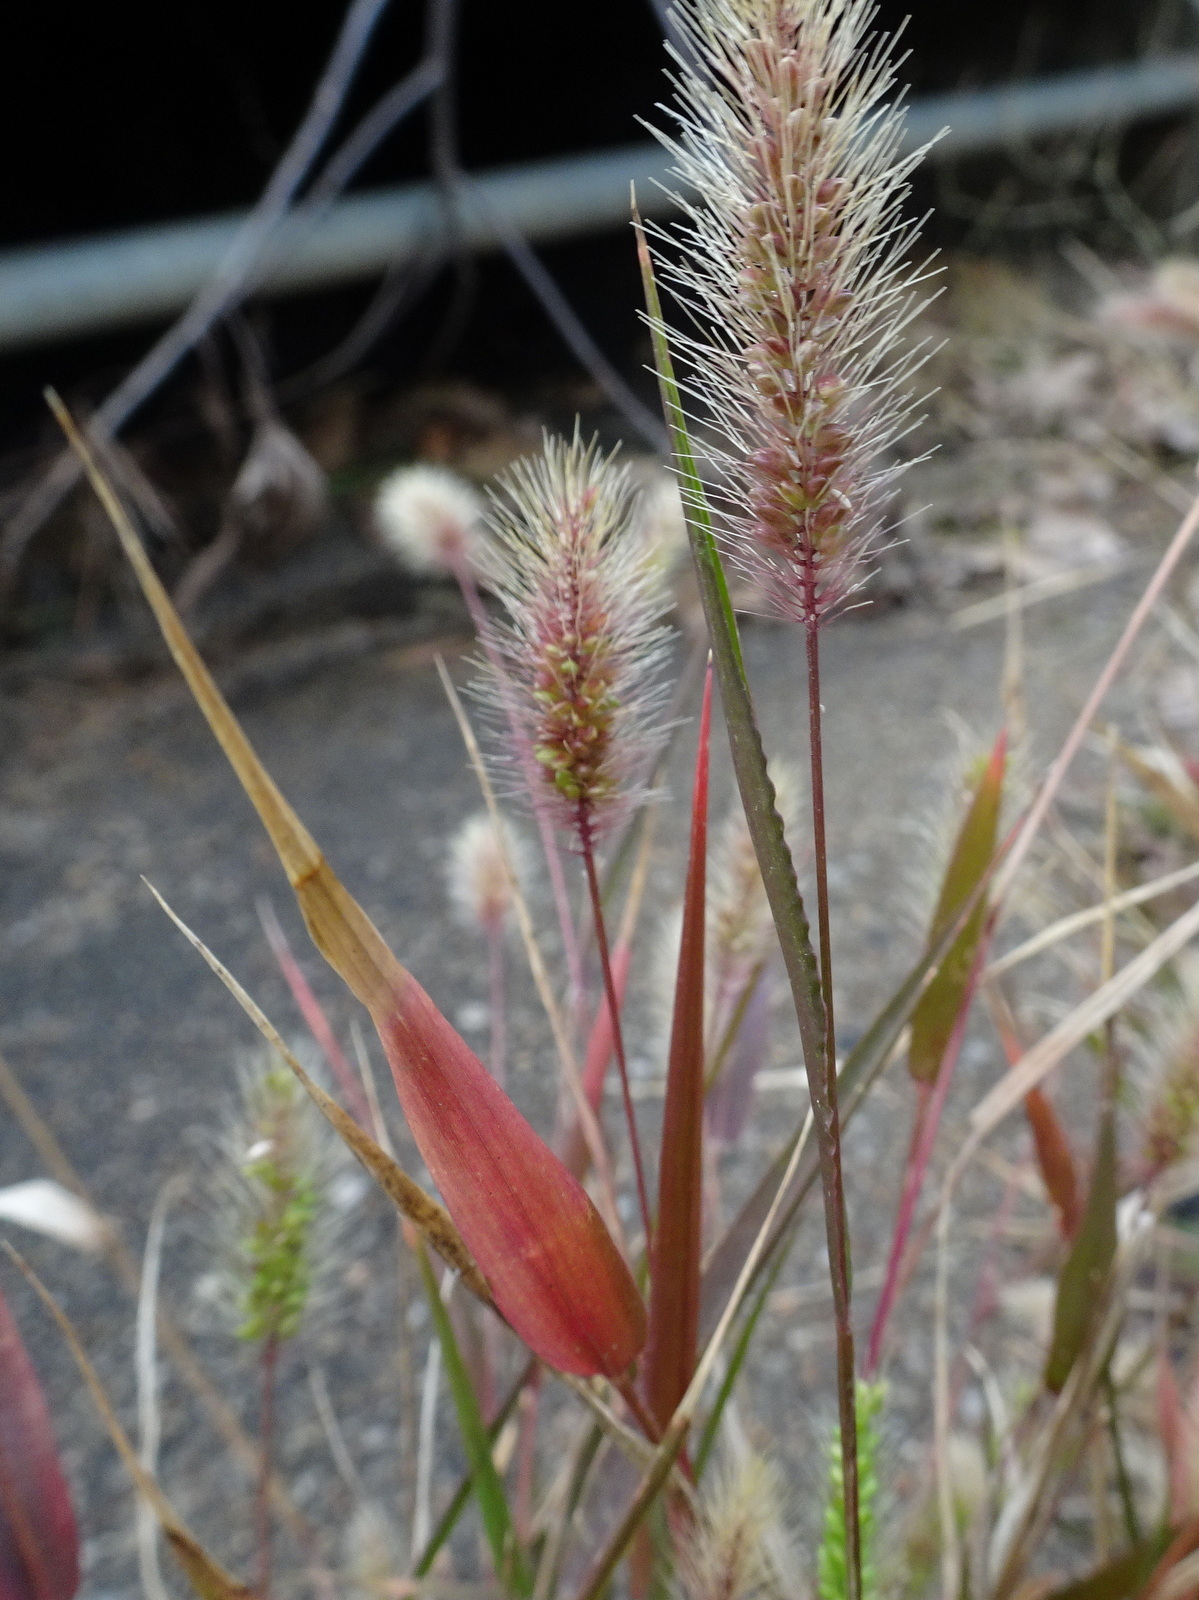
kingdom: Plantae
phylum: Tracheophyta
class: Liliopsida
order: Poales
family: Poaceae
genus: Setaria
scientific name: Setaria viridis
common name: Green bristlegrass
